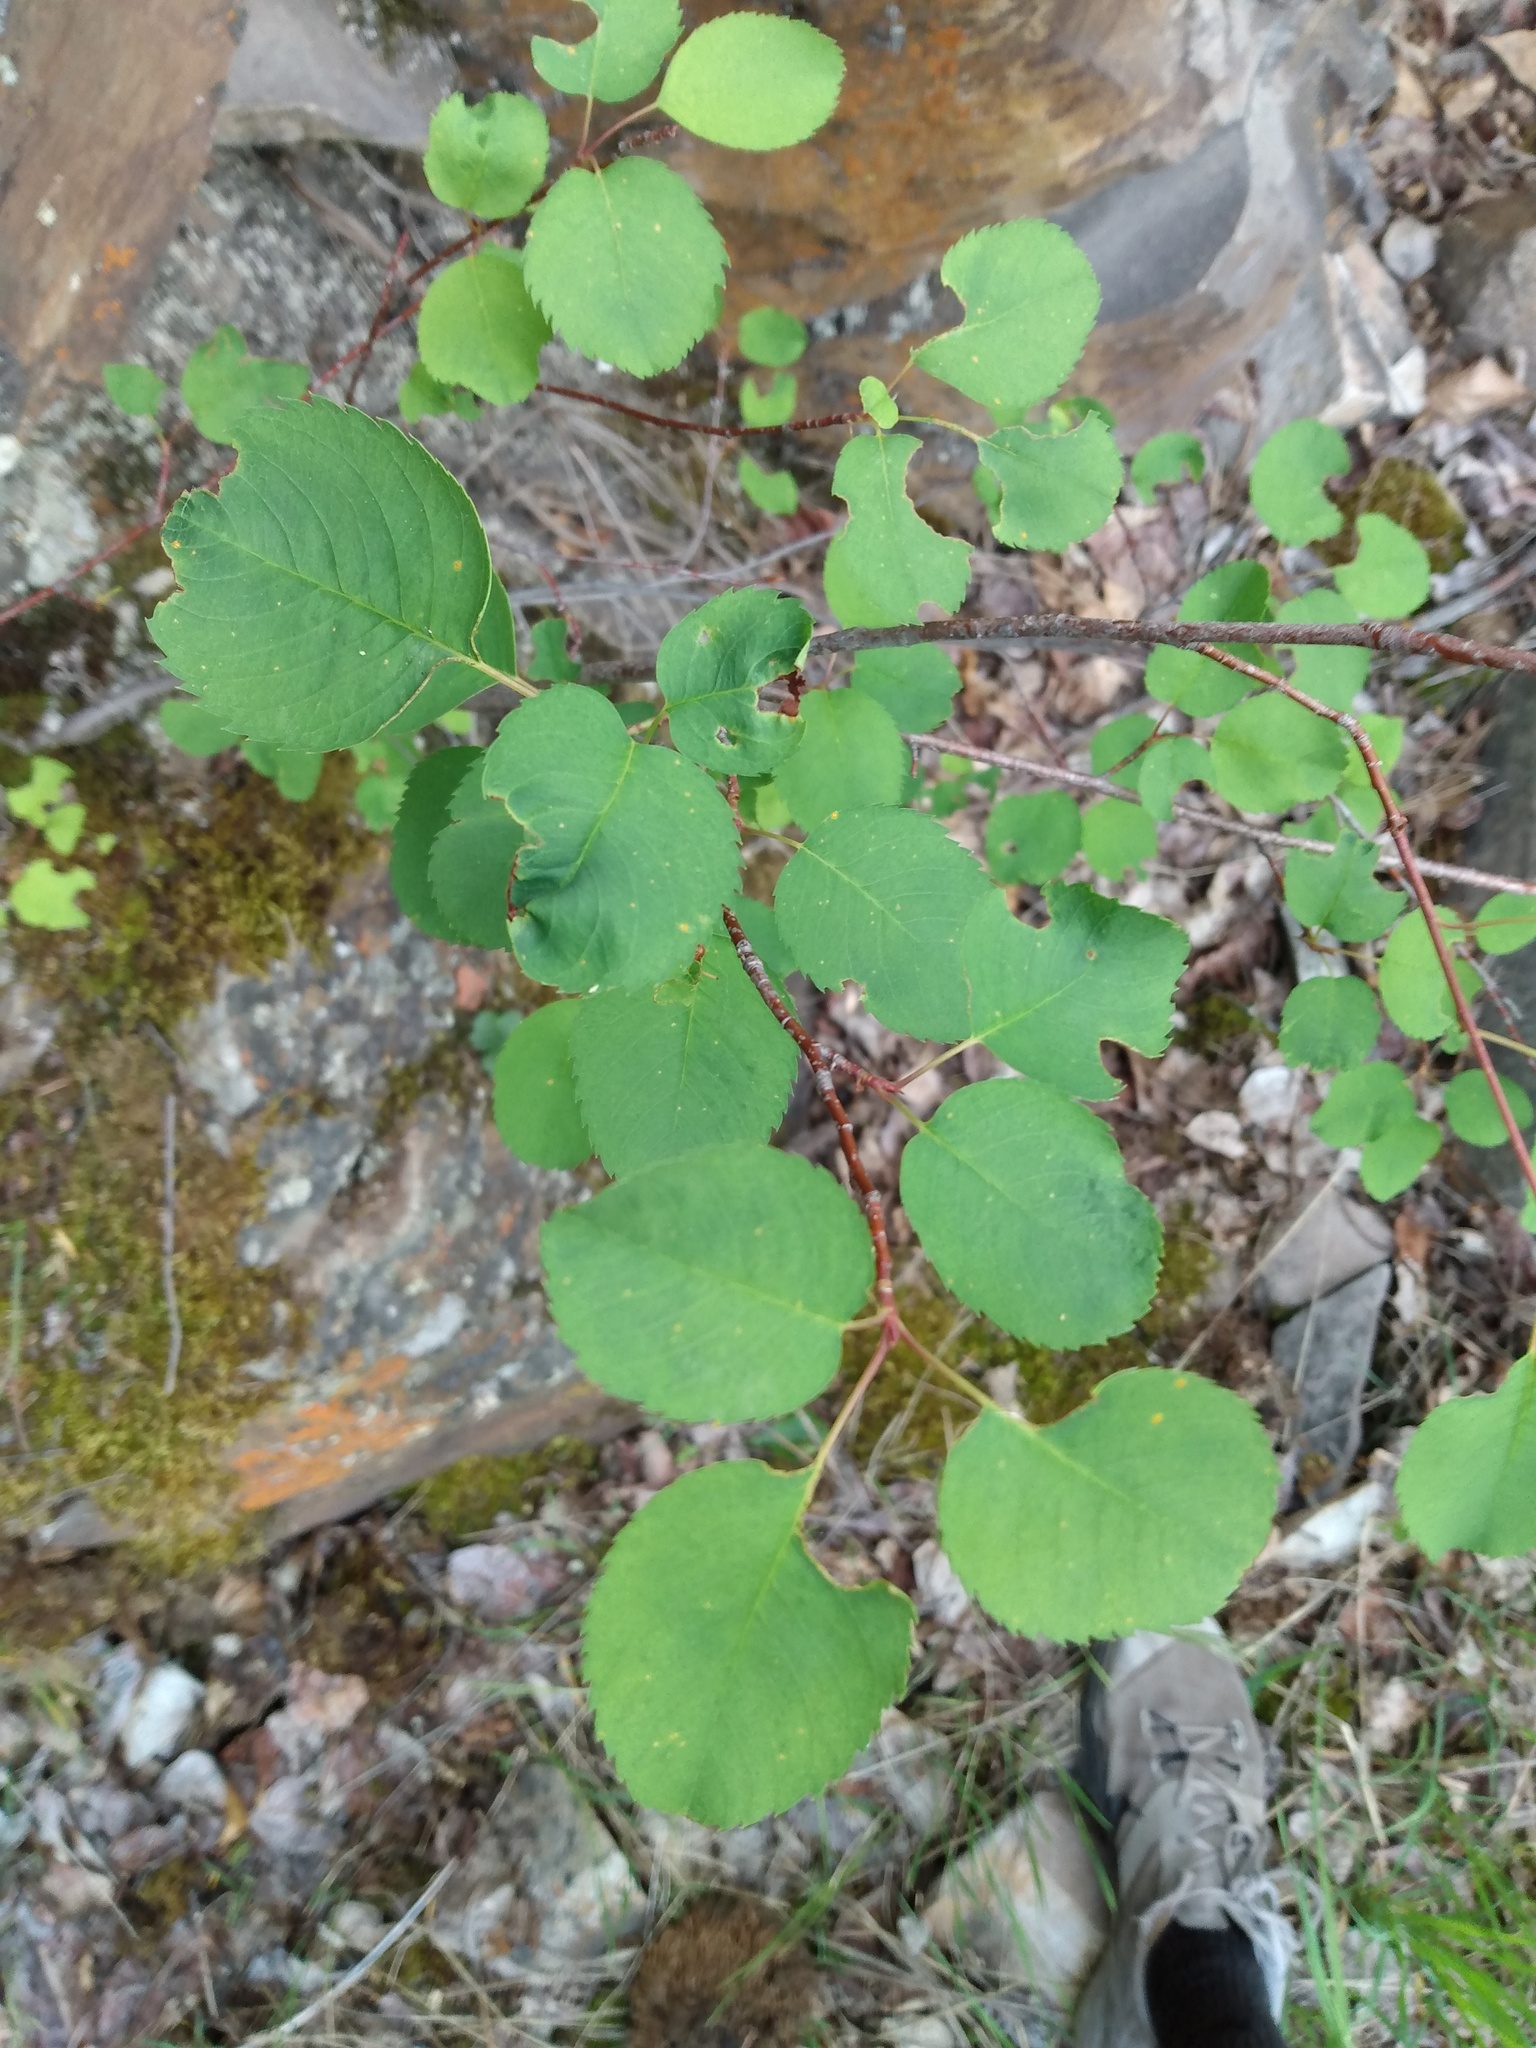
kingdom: Plantae
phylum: Tracheophyta
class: Magnoliopsida
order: Rosales
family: Rosaceae
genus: Amelanchier
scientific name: Amelanchier alnifolia
